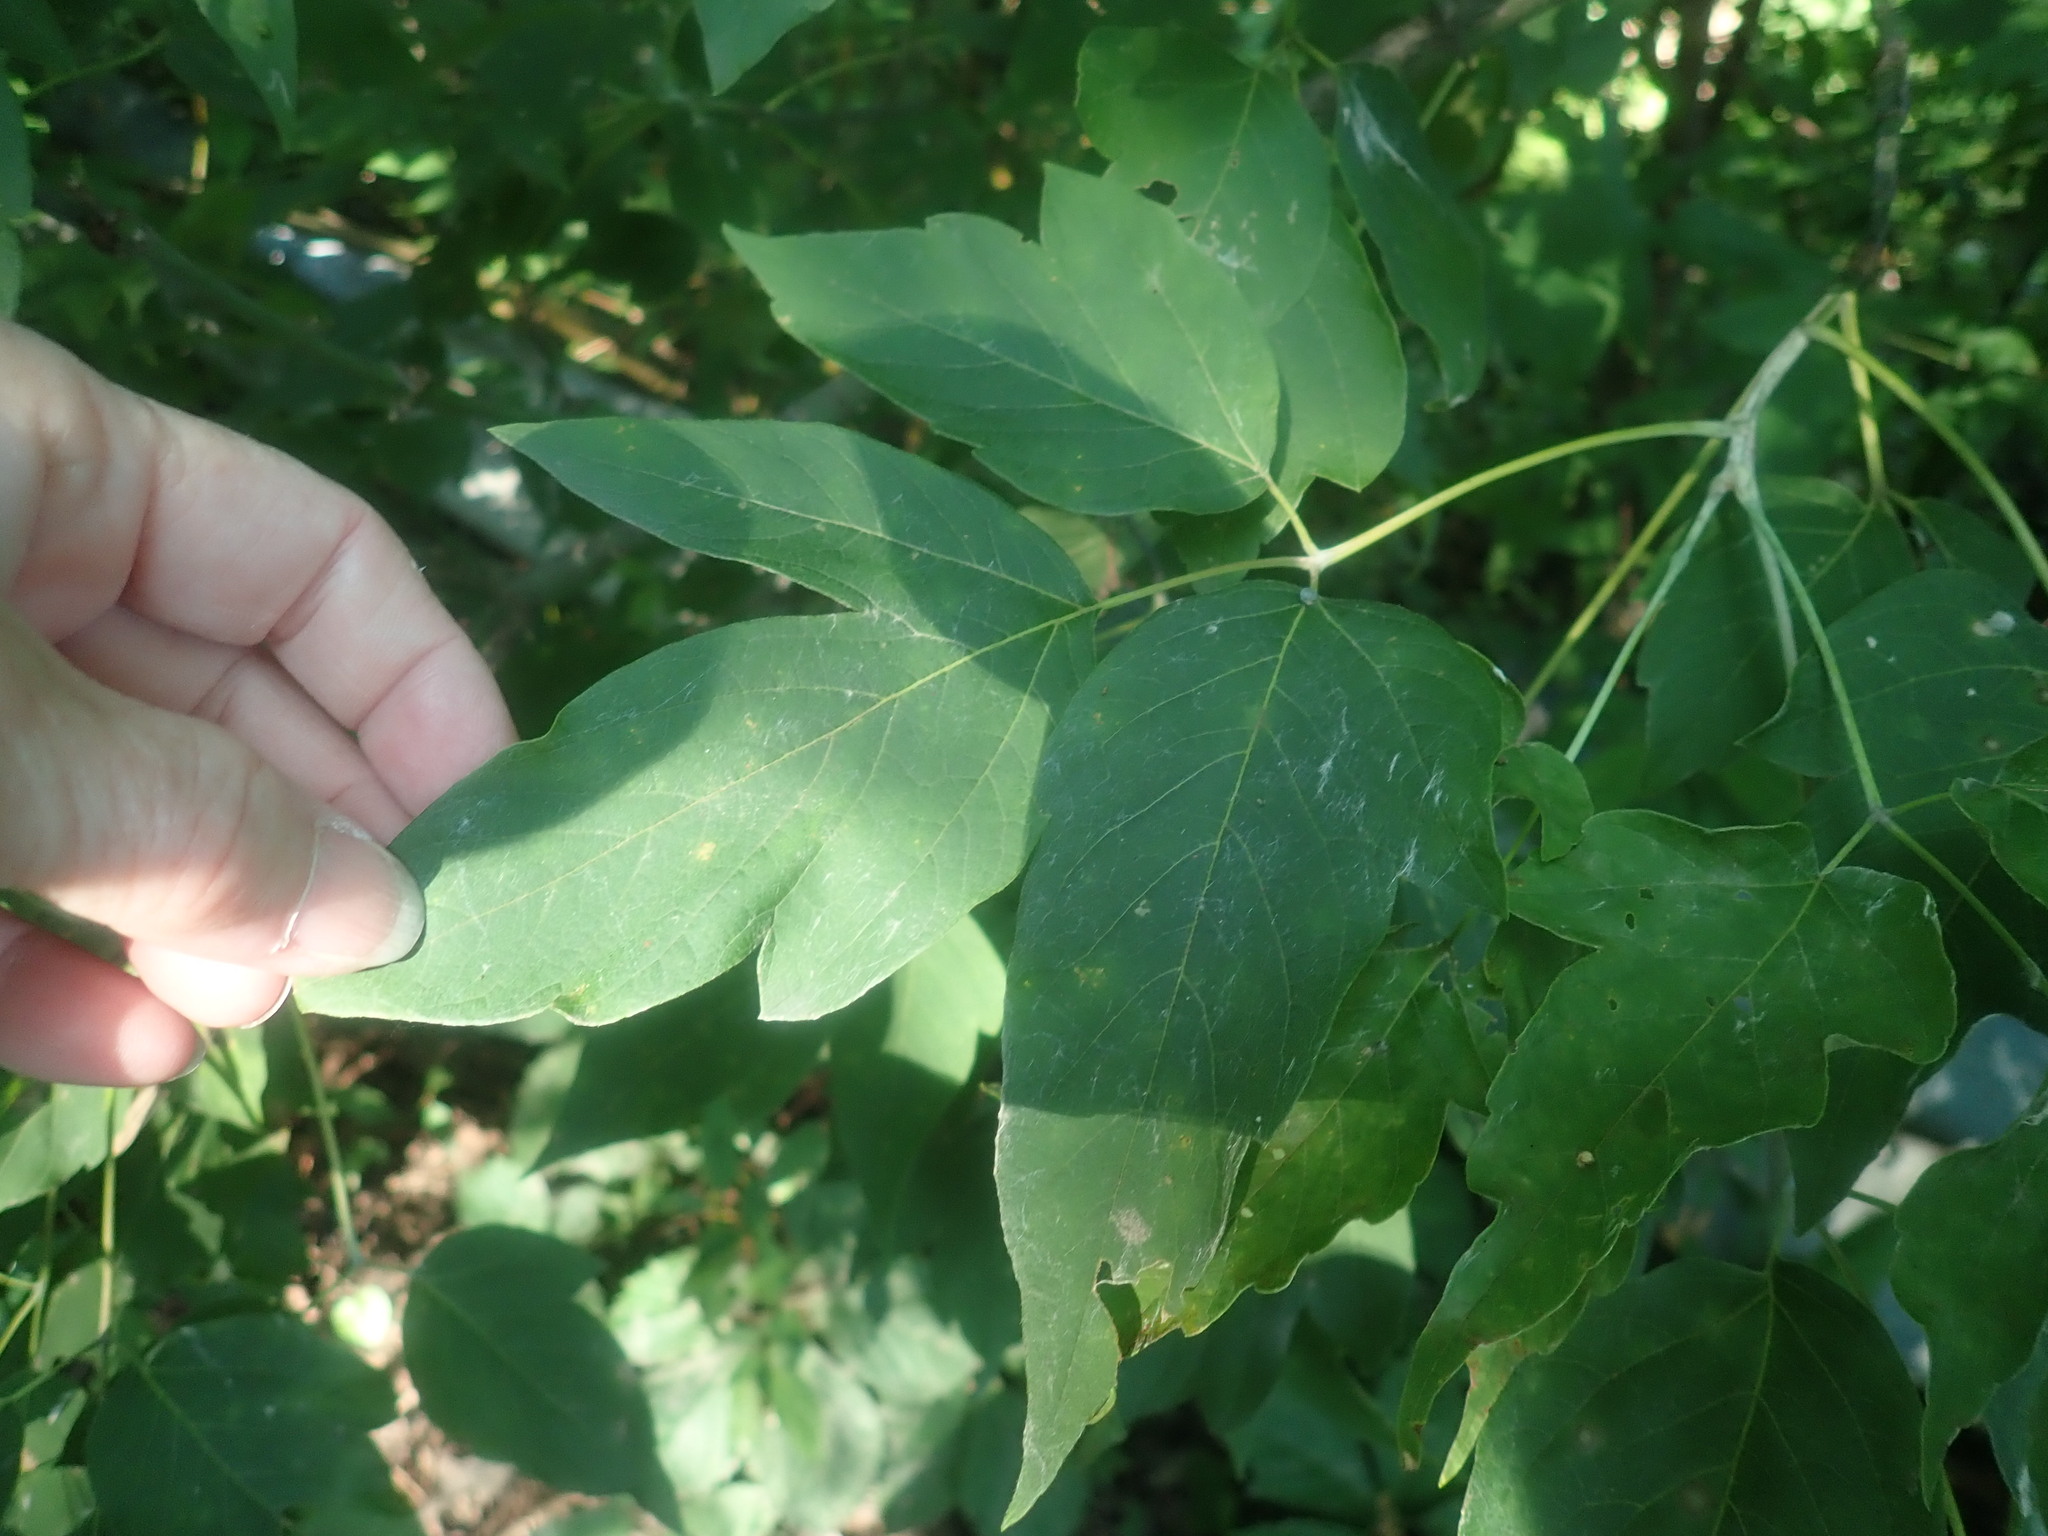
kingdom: Plantae
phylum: Tracheophyta
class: Magnoliopsida
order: Sapindales
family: Sapindaceae
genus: Acer
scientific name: Acer negundo
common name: Ashleaf maple
